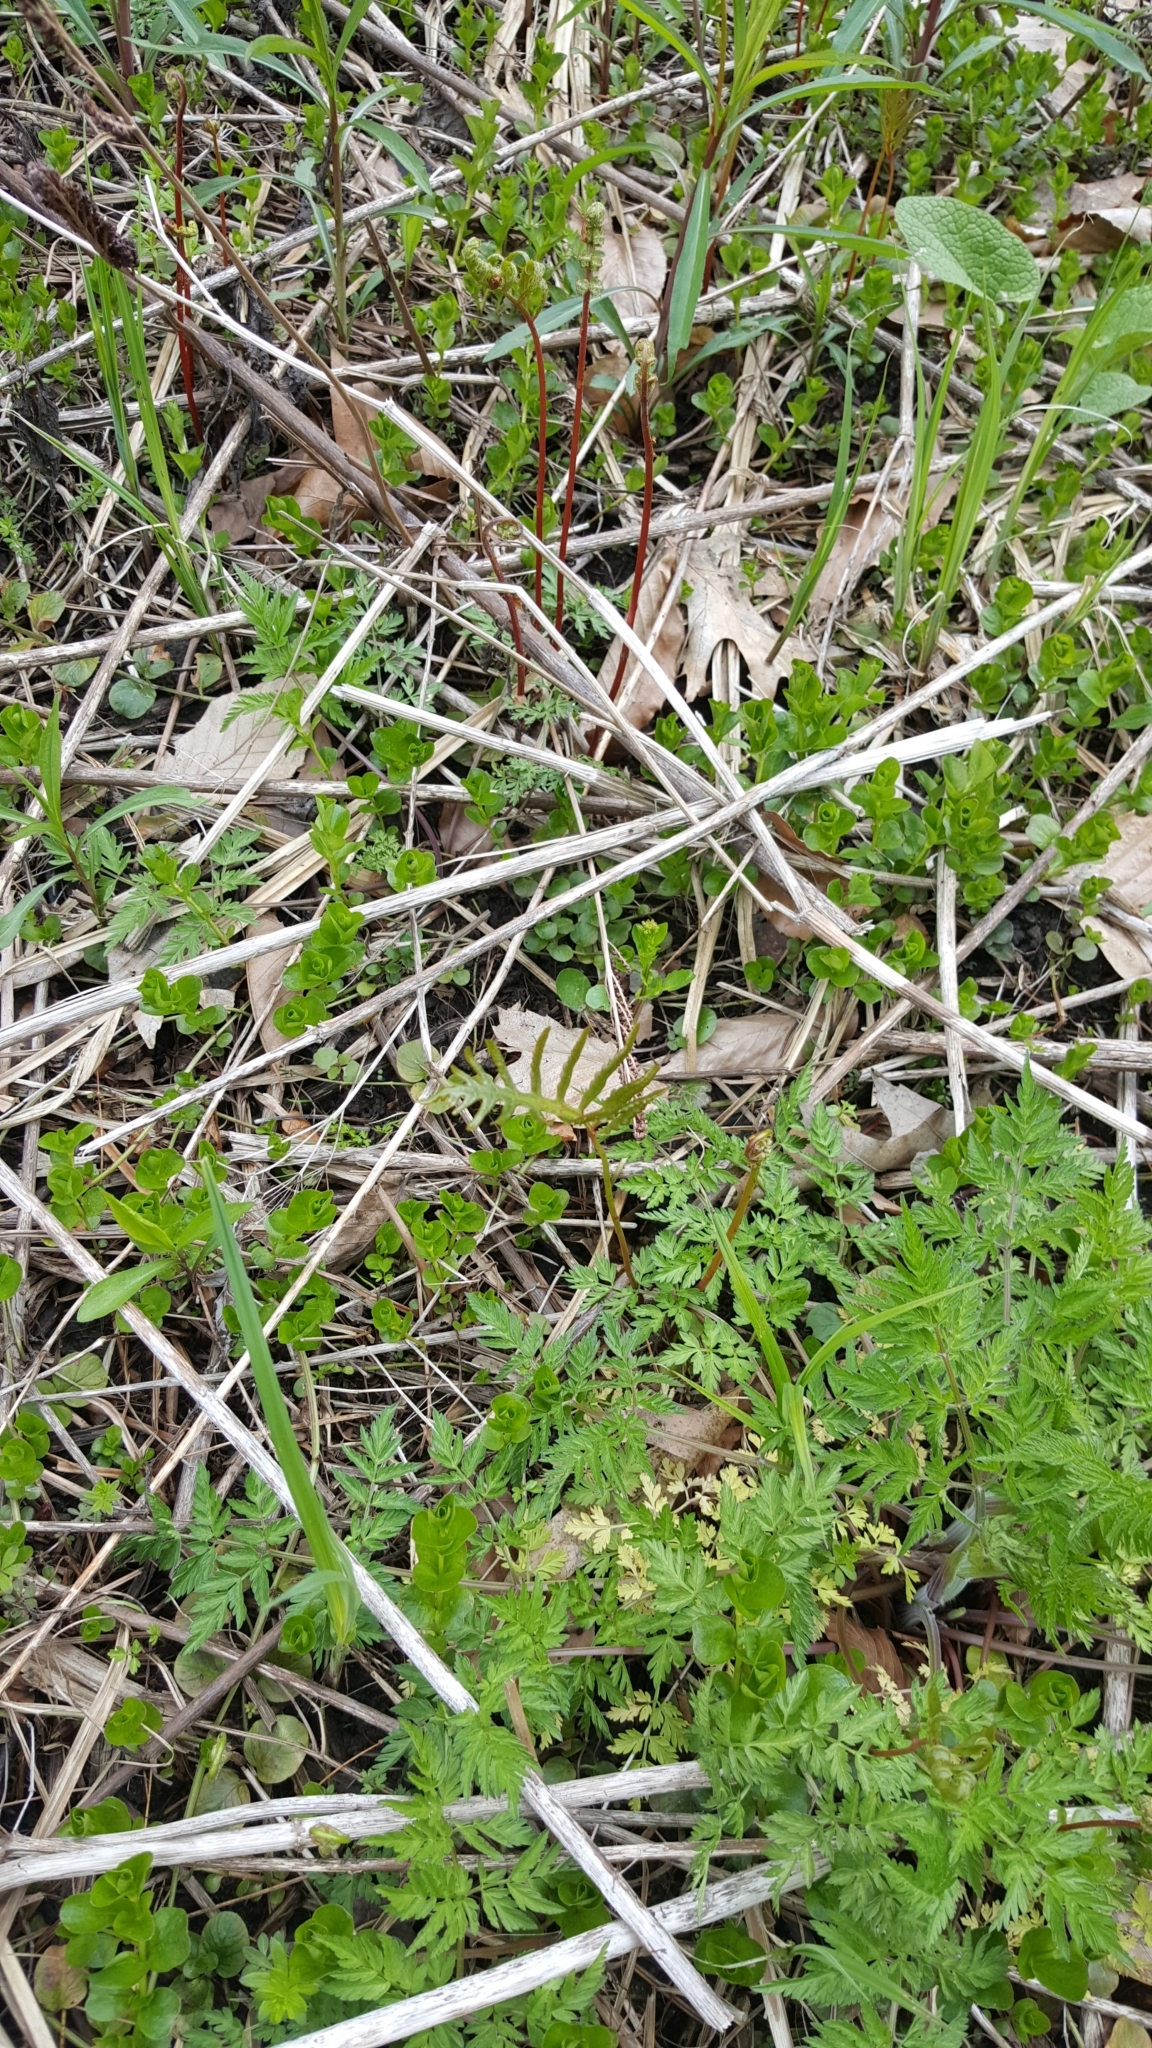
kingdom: Plantae
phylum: Tracheophyta
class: Magnoliopsida
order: Asterales
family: Asteraceae
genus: Arctium
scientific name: Arctium
